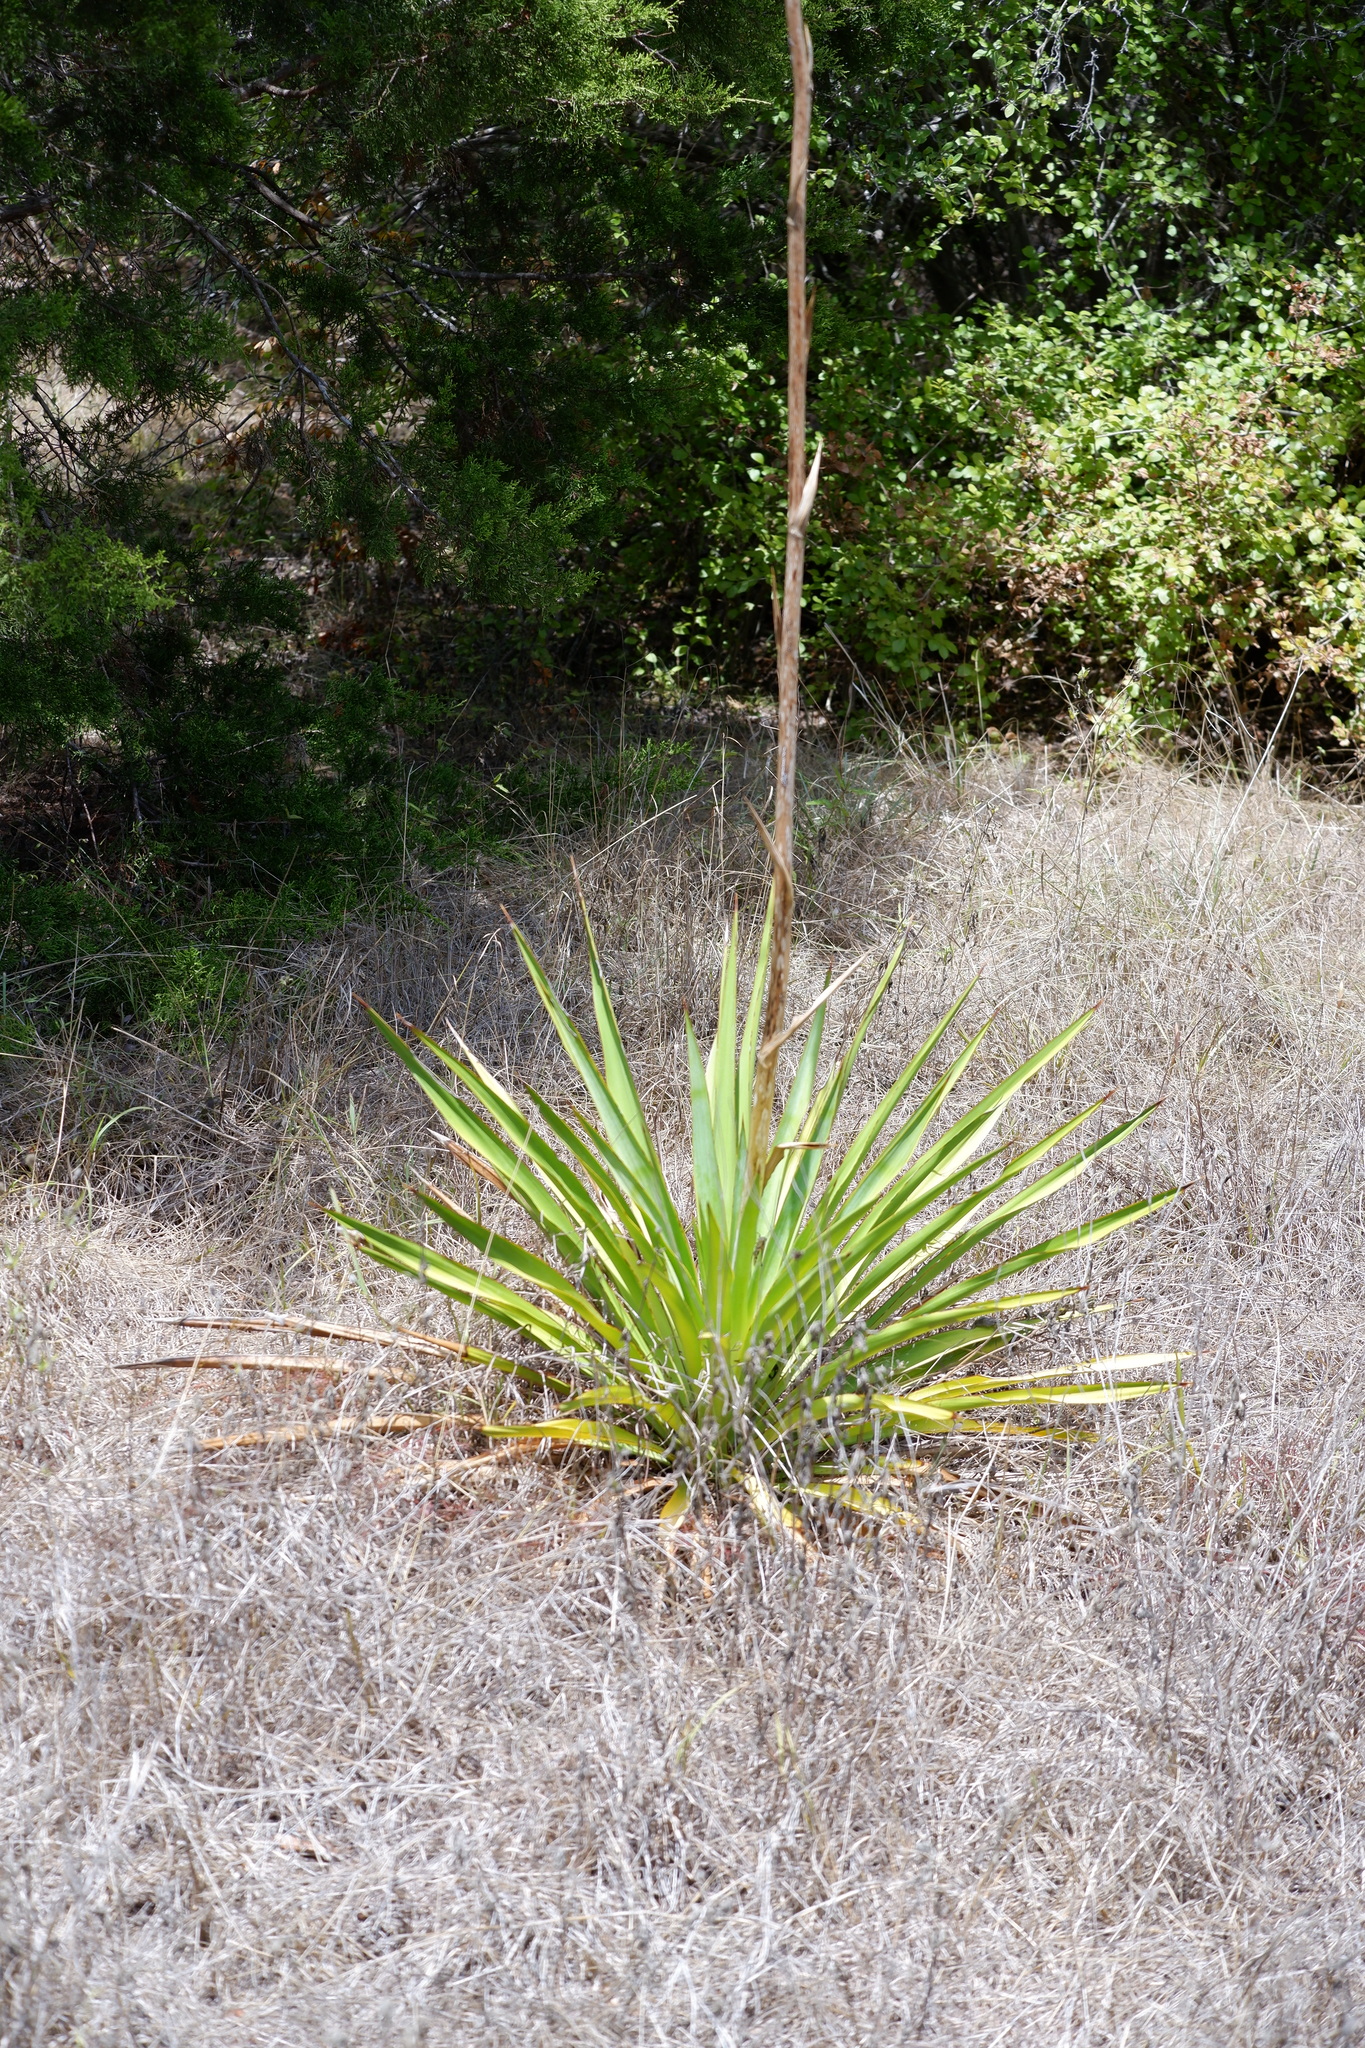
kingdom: Plantae
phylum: Tracheophyta
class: Liliopsida
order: Asparagales
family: Asparagaceae
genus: Yucca
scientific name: Yucca rupicola
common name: Twisted-leaf spanish-dagger
